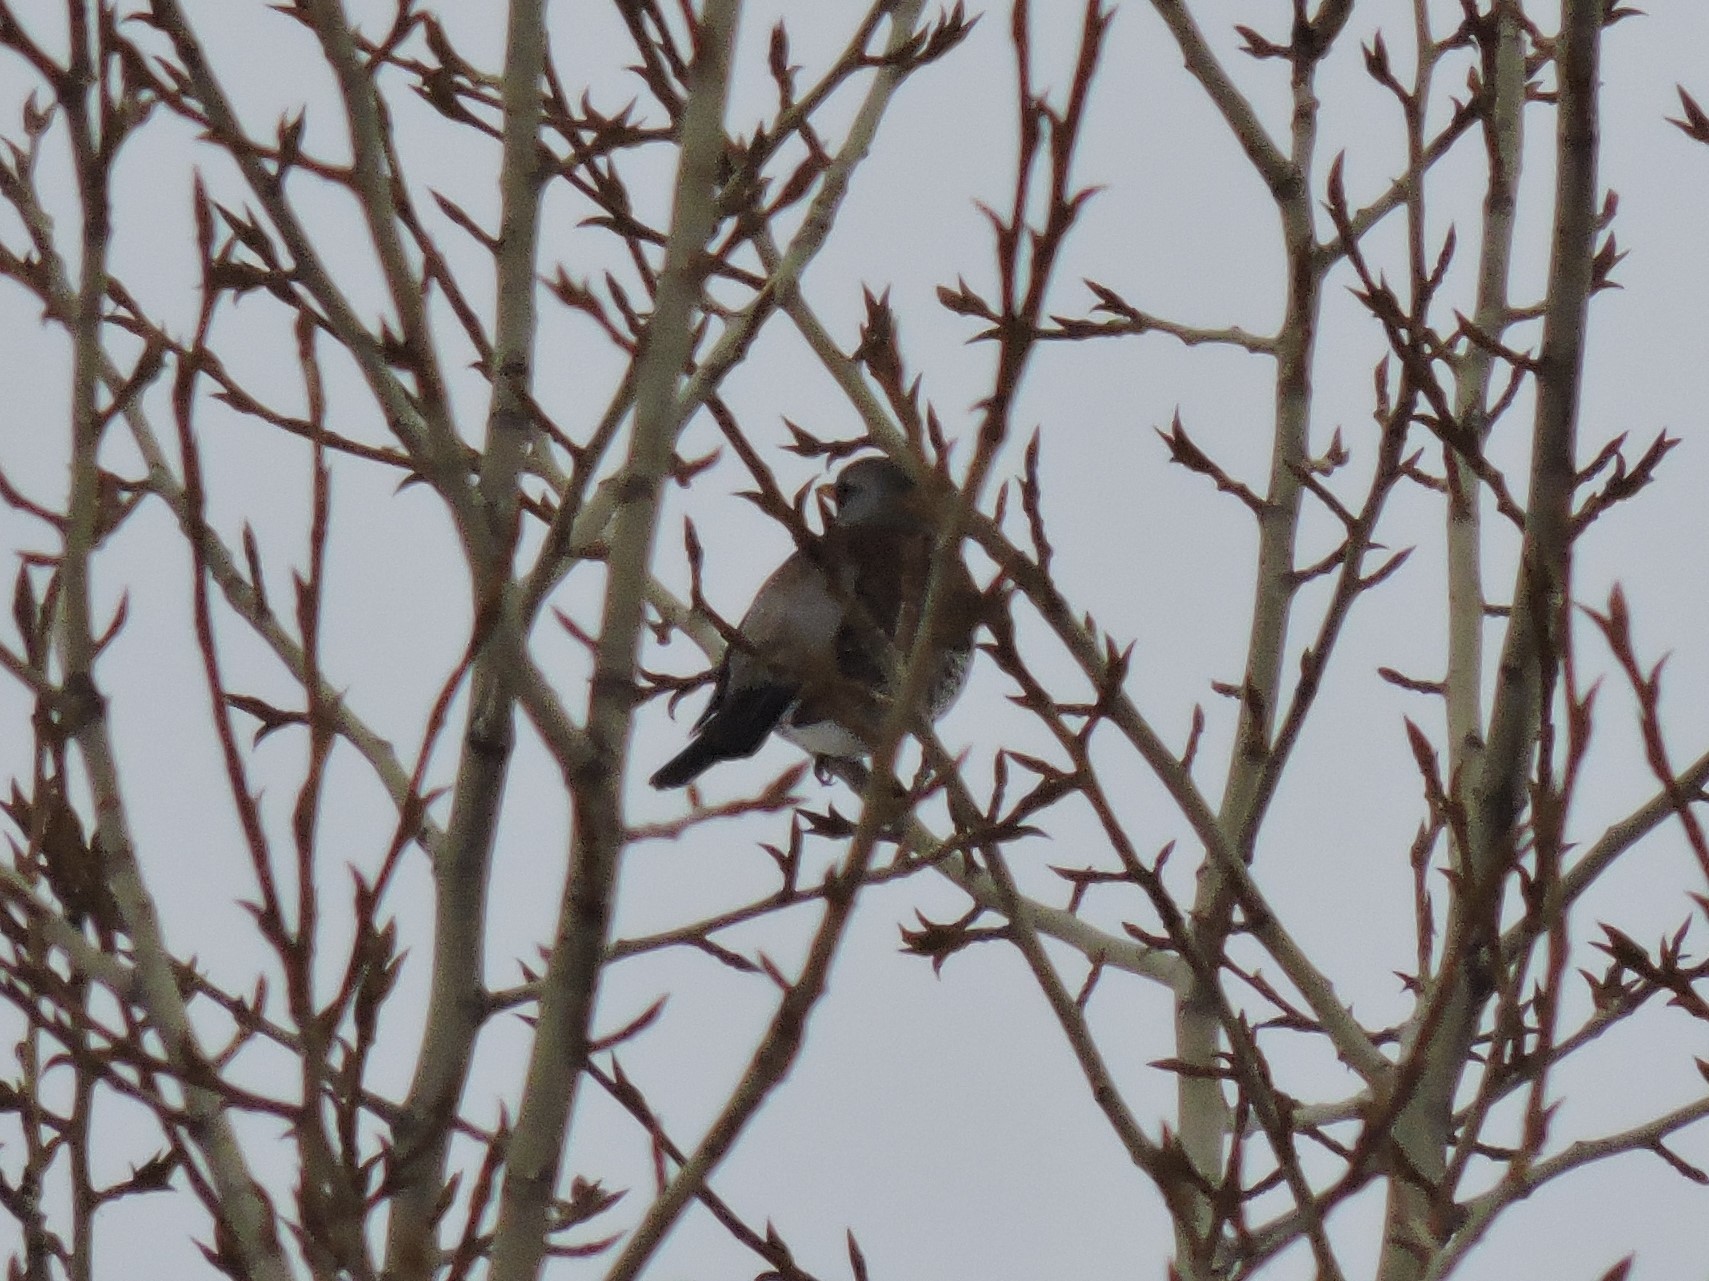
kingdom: Animalia
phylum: Chordata
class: Aves
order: Passeriformes
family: Turdidae
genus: Turdus
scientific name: Turdus pilaris
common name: Fieldfare
